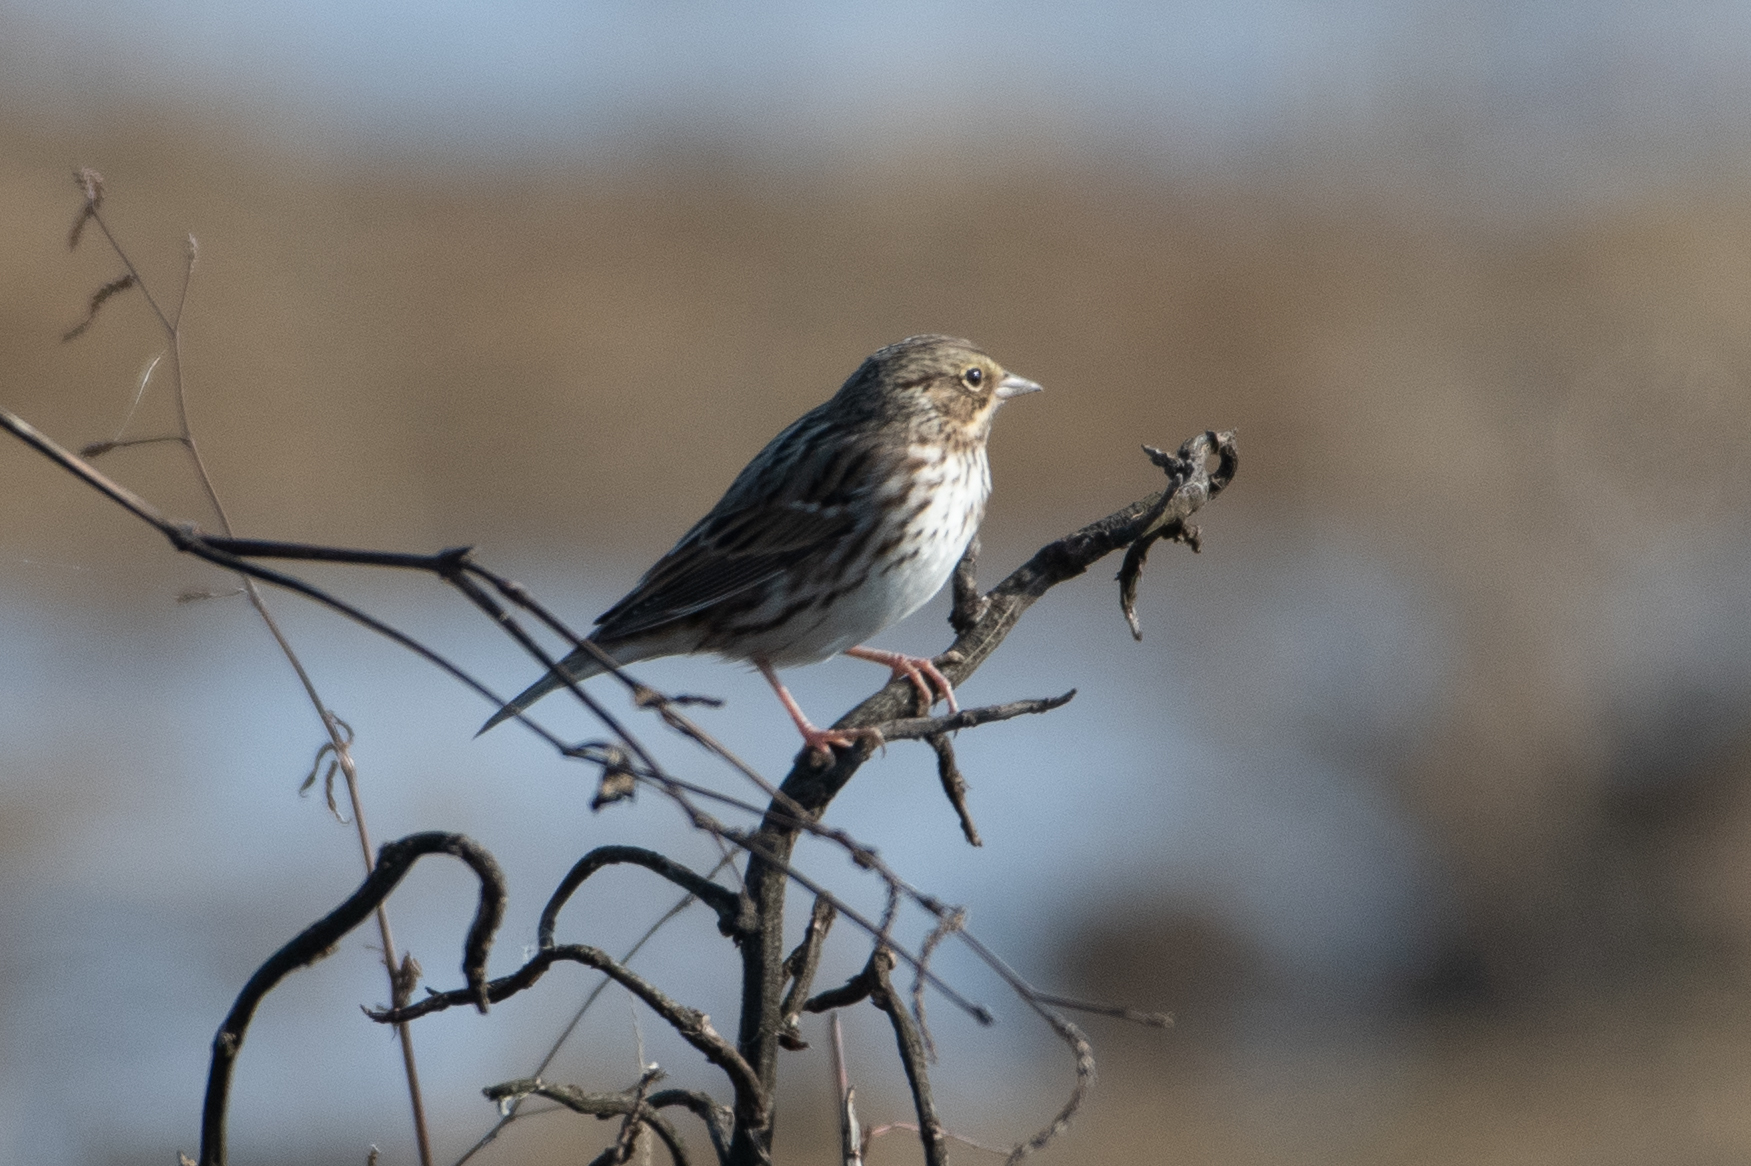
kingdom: Animalia
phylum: Chordata
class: Aves
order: Passeriformes
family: Passerellidae
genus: Passerculus
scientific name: Passerculus sandwichensis
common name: Savannah sparrow
